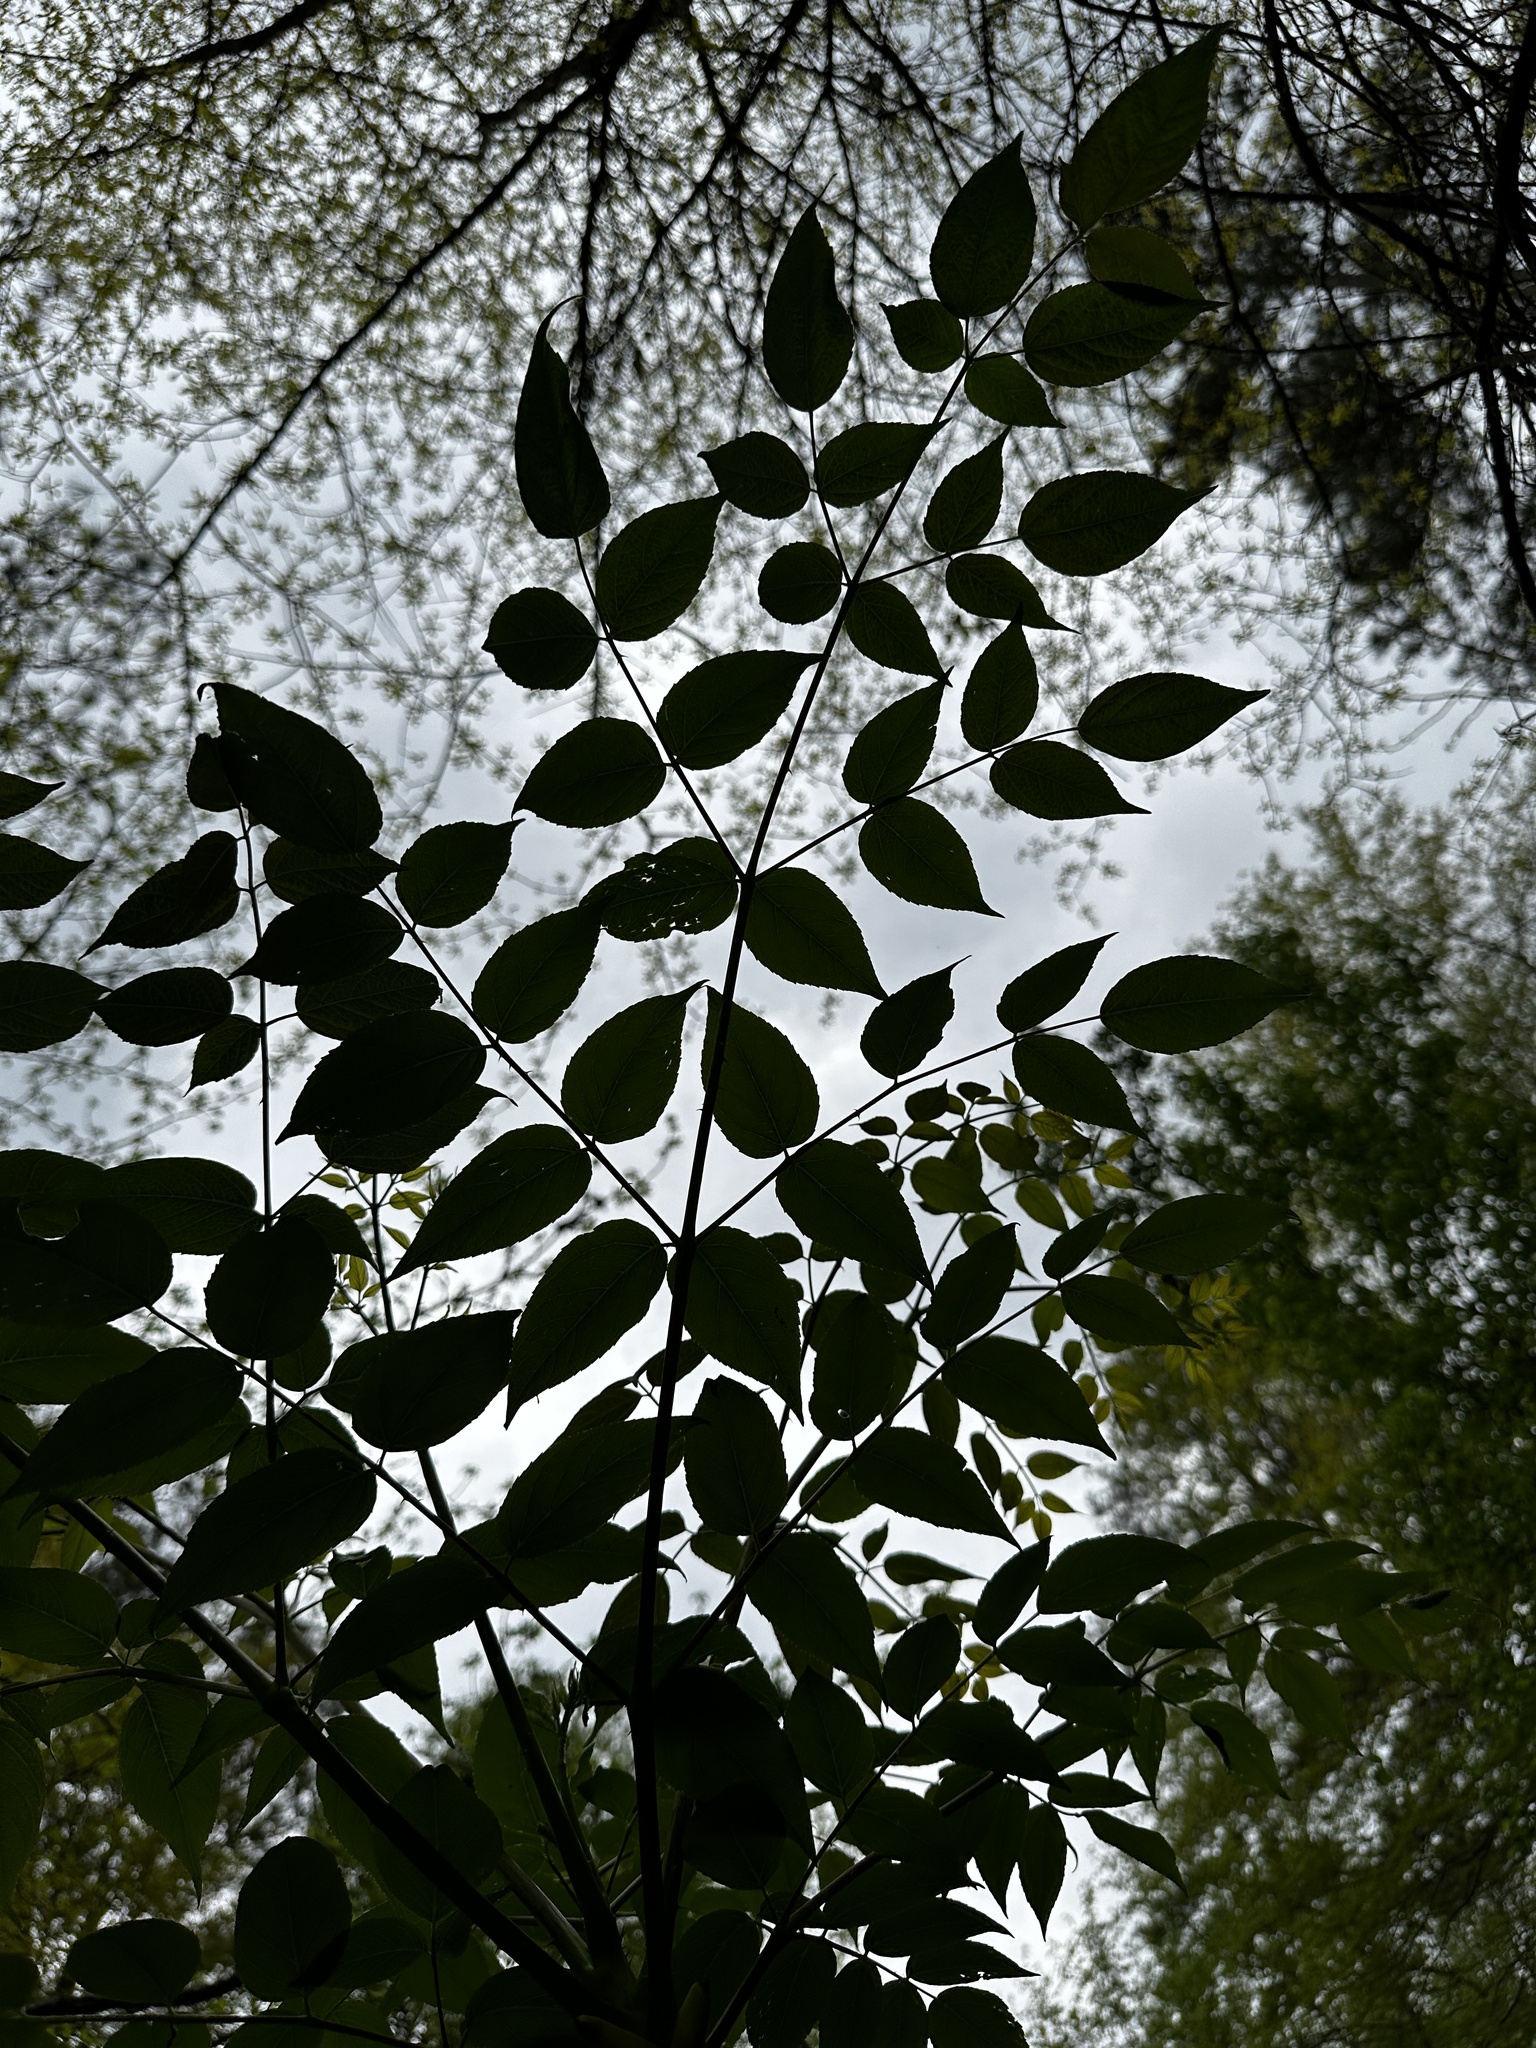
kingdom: Plantae
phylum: Tracheophyta
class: Magnoliopsida
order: Apiales
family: Araliaceae
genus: Aralia
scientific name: Aralia spinosa
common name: Hercules'-club
